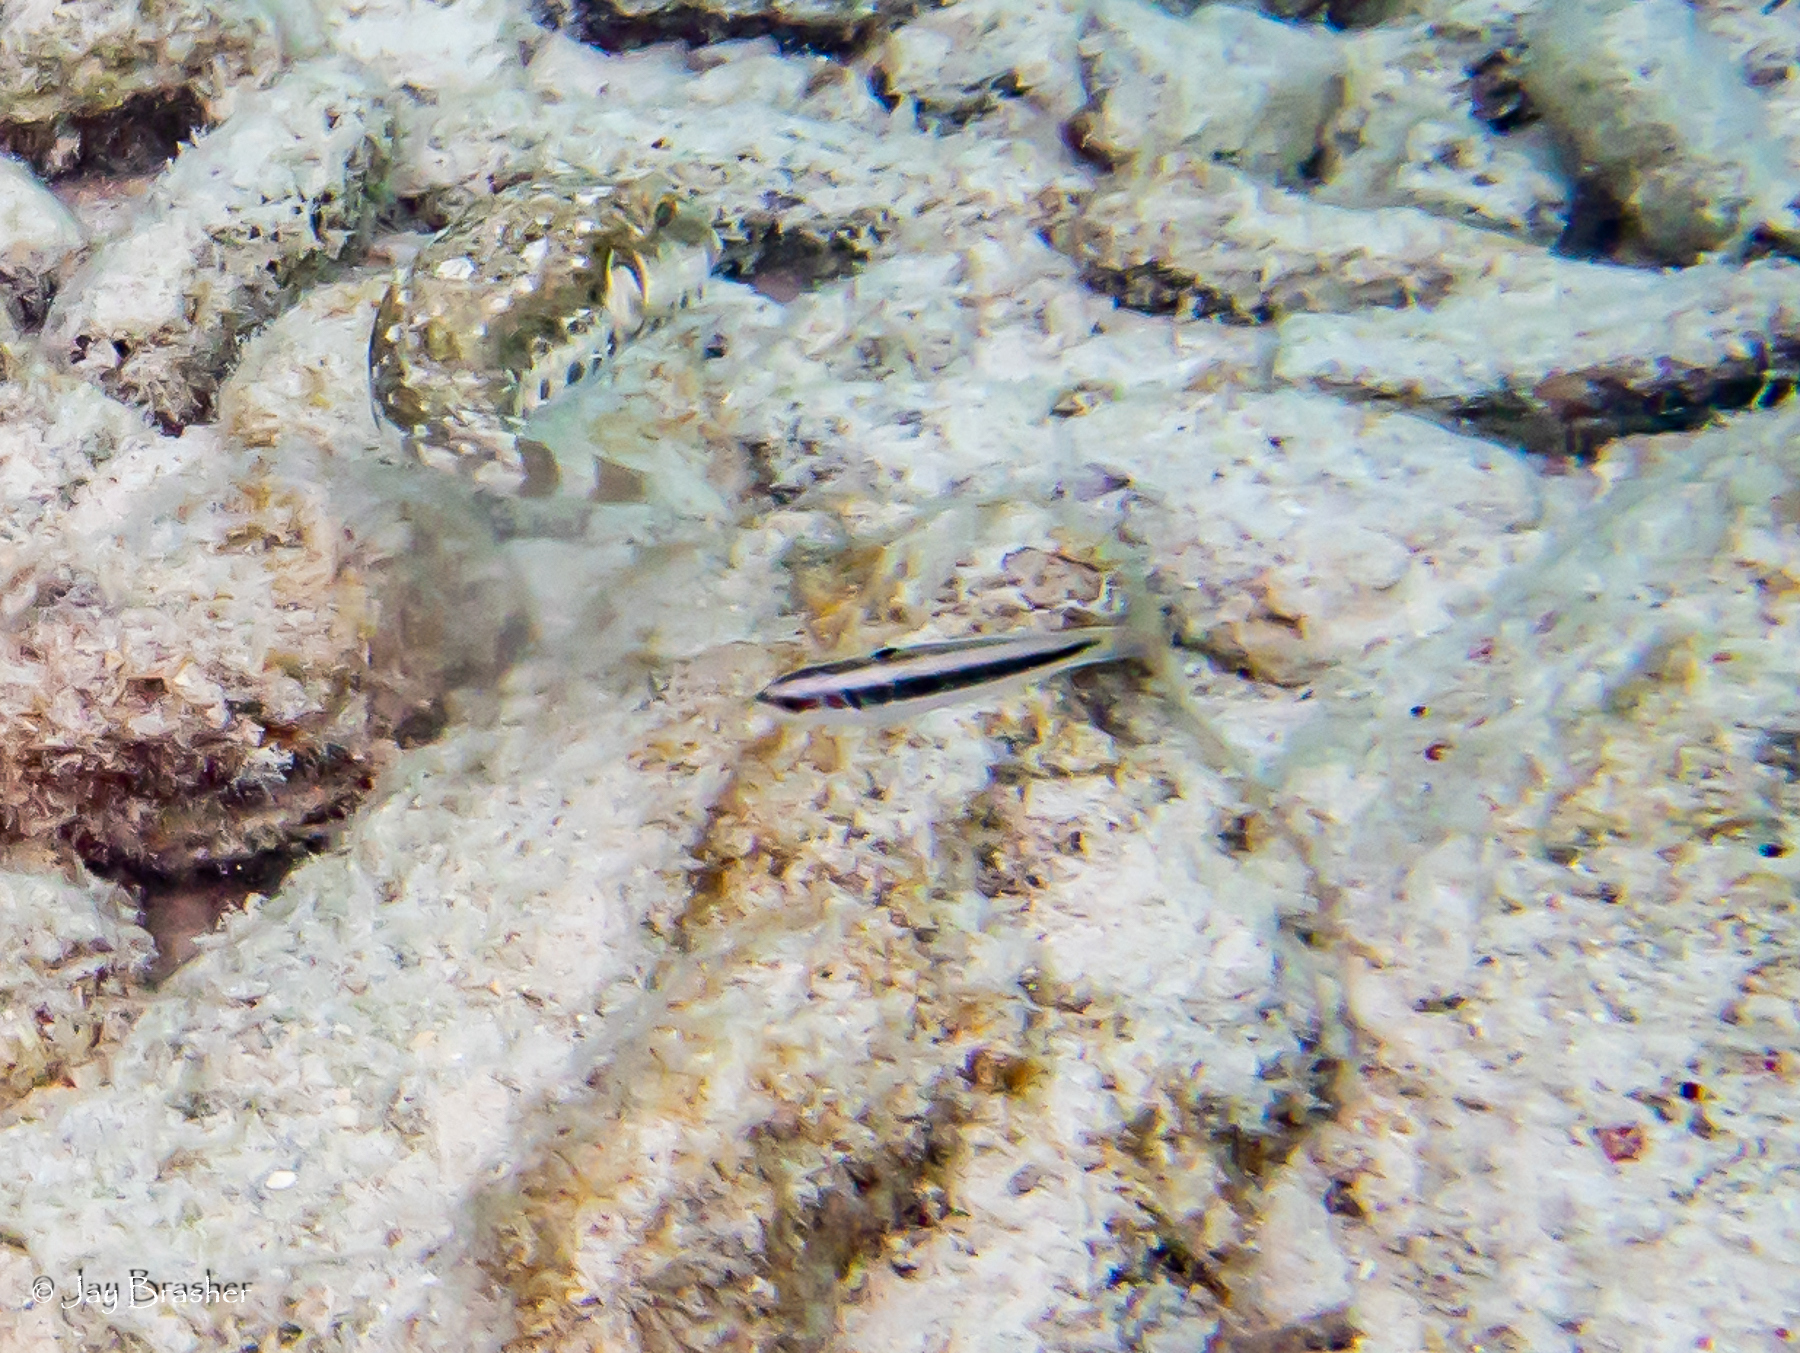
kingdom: Animalia
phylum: Chordata
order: Tetraodontiformes
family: Tetraodontidae
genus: Sphoeroides
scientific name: Sphoeroides spengleri
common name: Bandtail puffer
